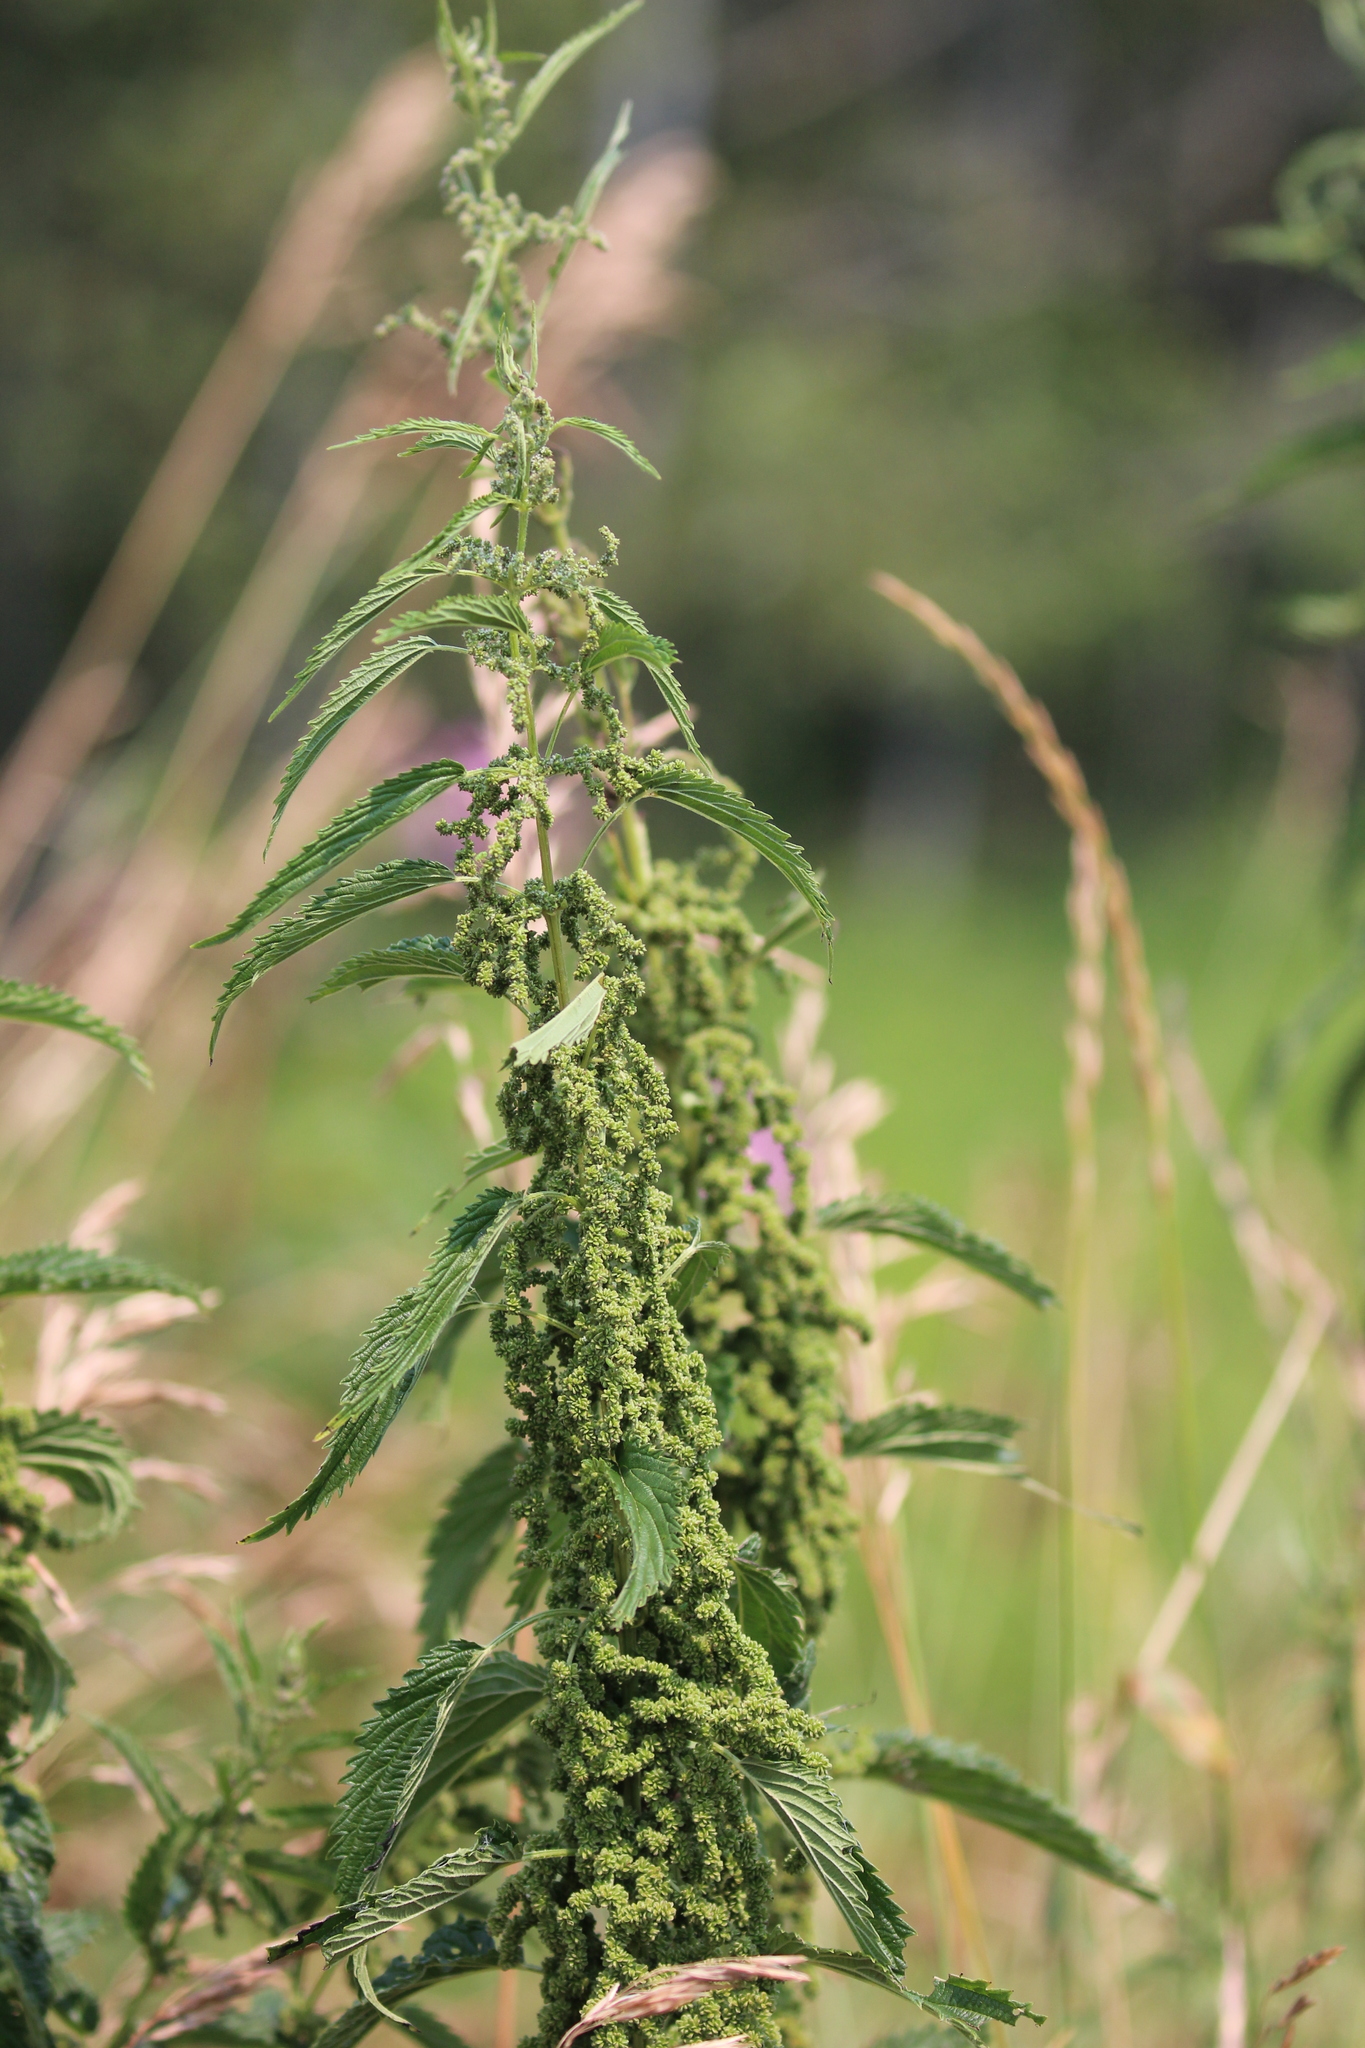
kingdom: Plantae
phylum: Tracheophyta
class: Magnoliopsida
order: Rosales
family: Urticaceae
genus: Urtica
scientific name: Urtica dioica
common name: Common nettle
